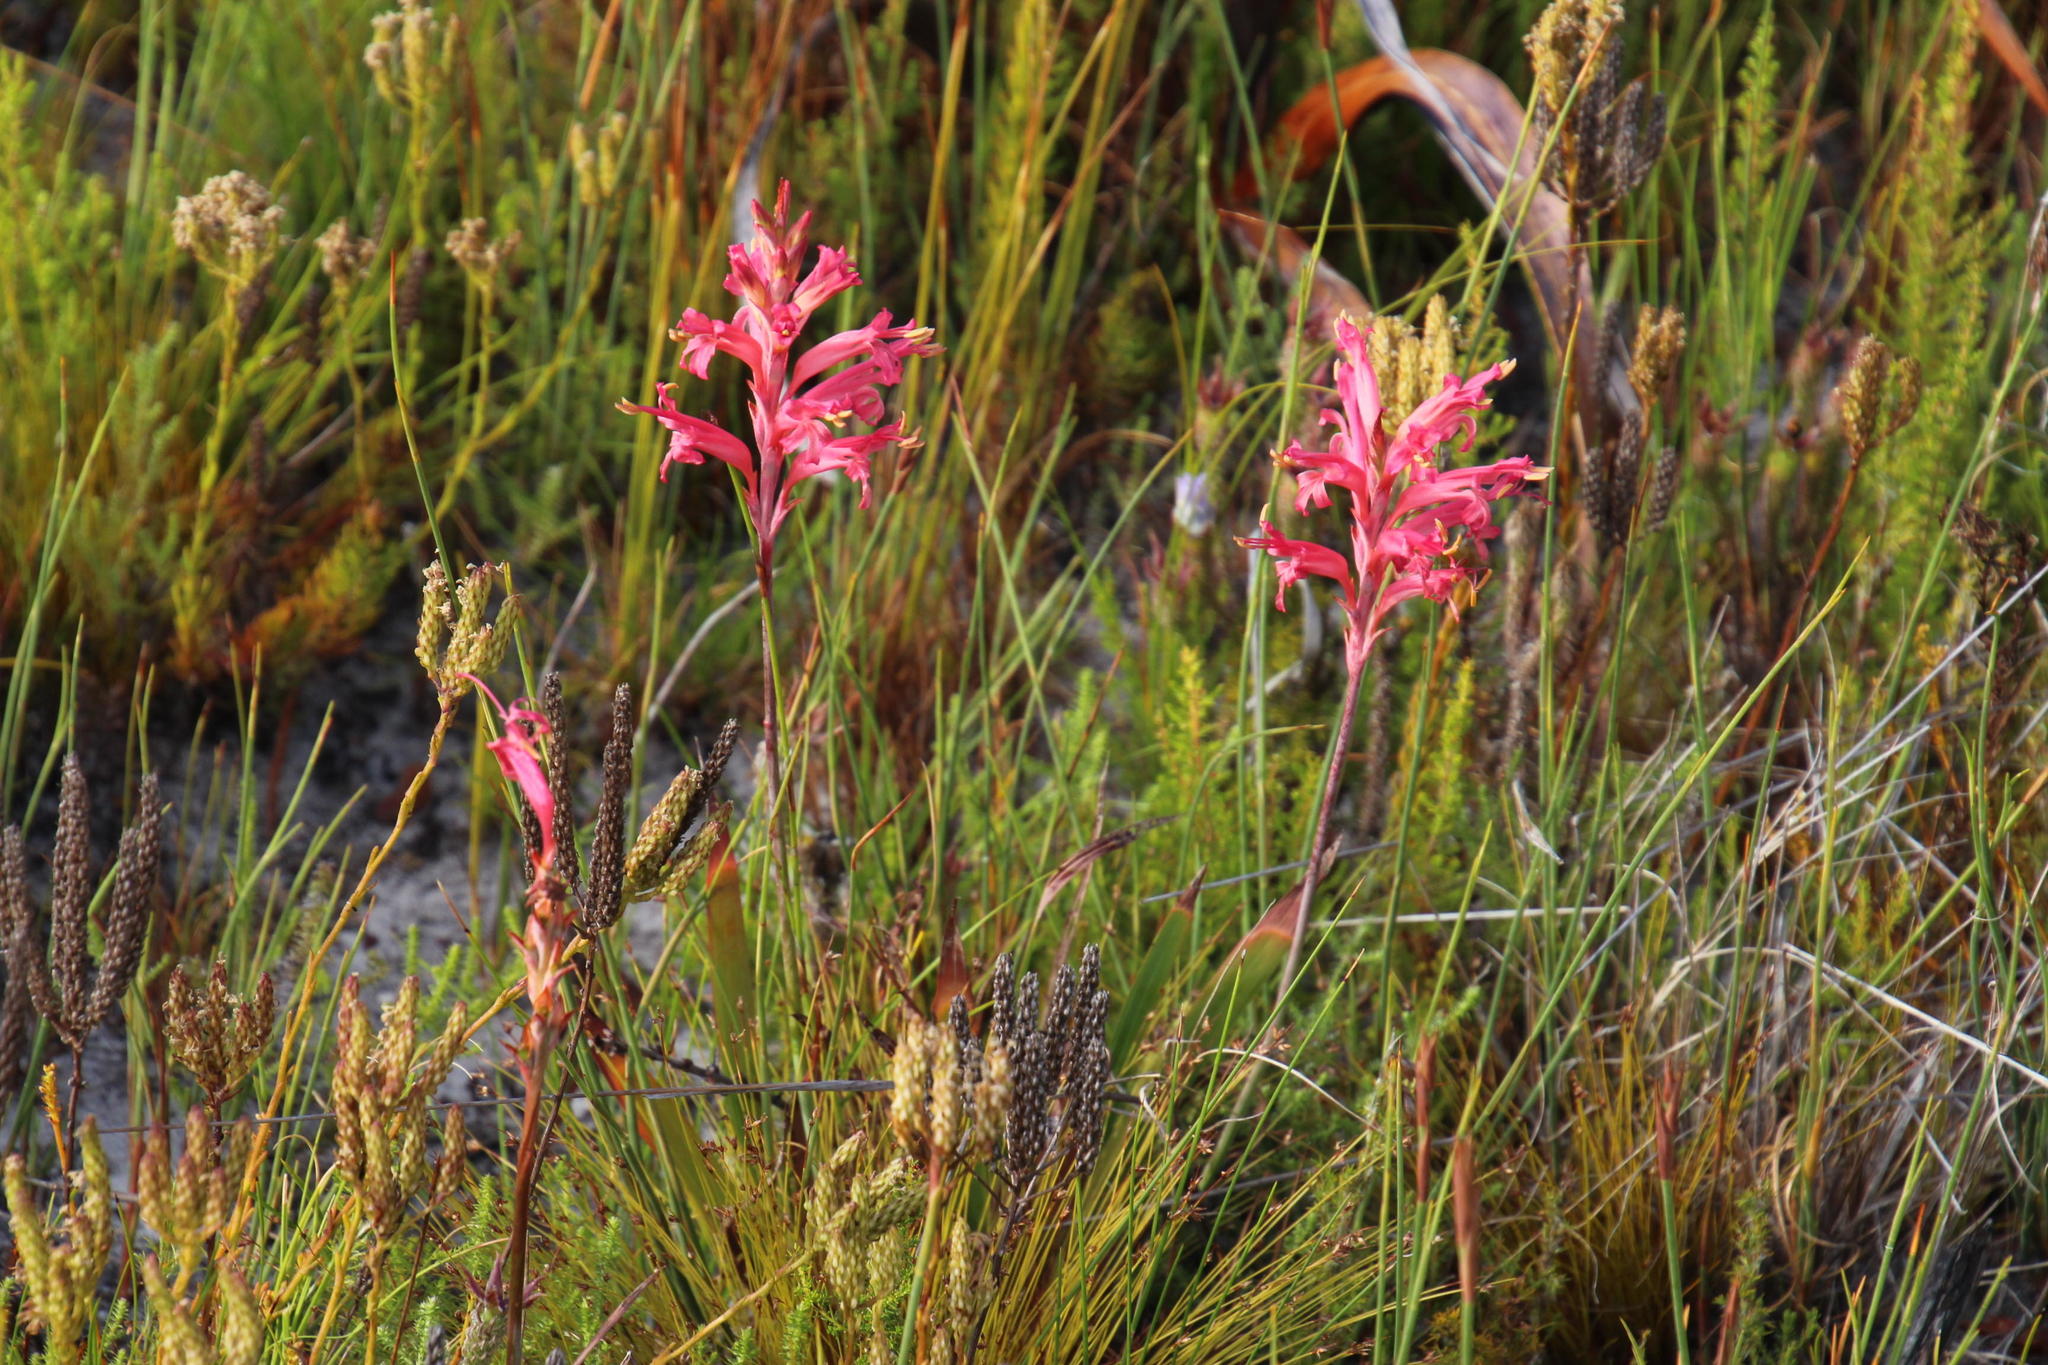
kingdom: Plantae
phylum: Tracheophyta
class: Liliopsida
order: Asparagales
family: Iridaceae
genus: Tritoniopsis
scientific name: Tritoniopsis antholyza
